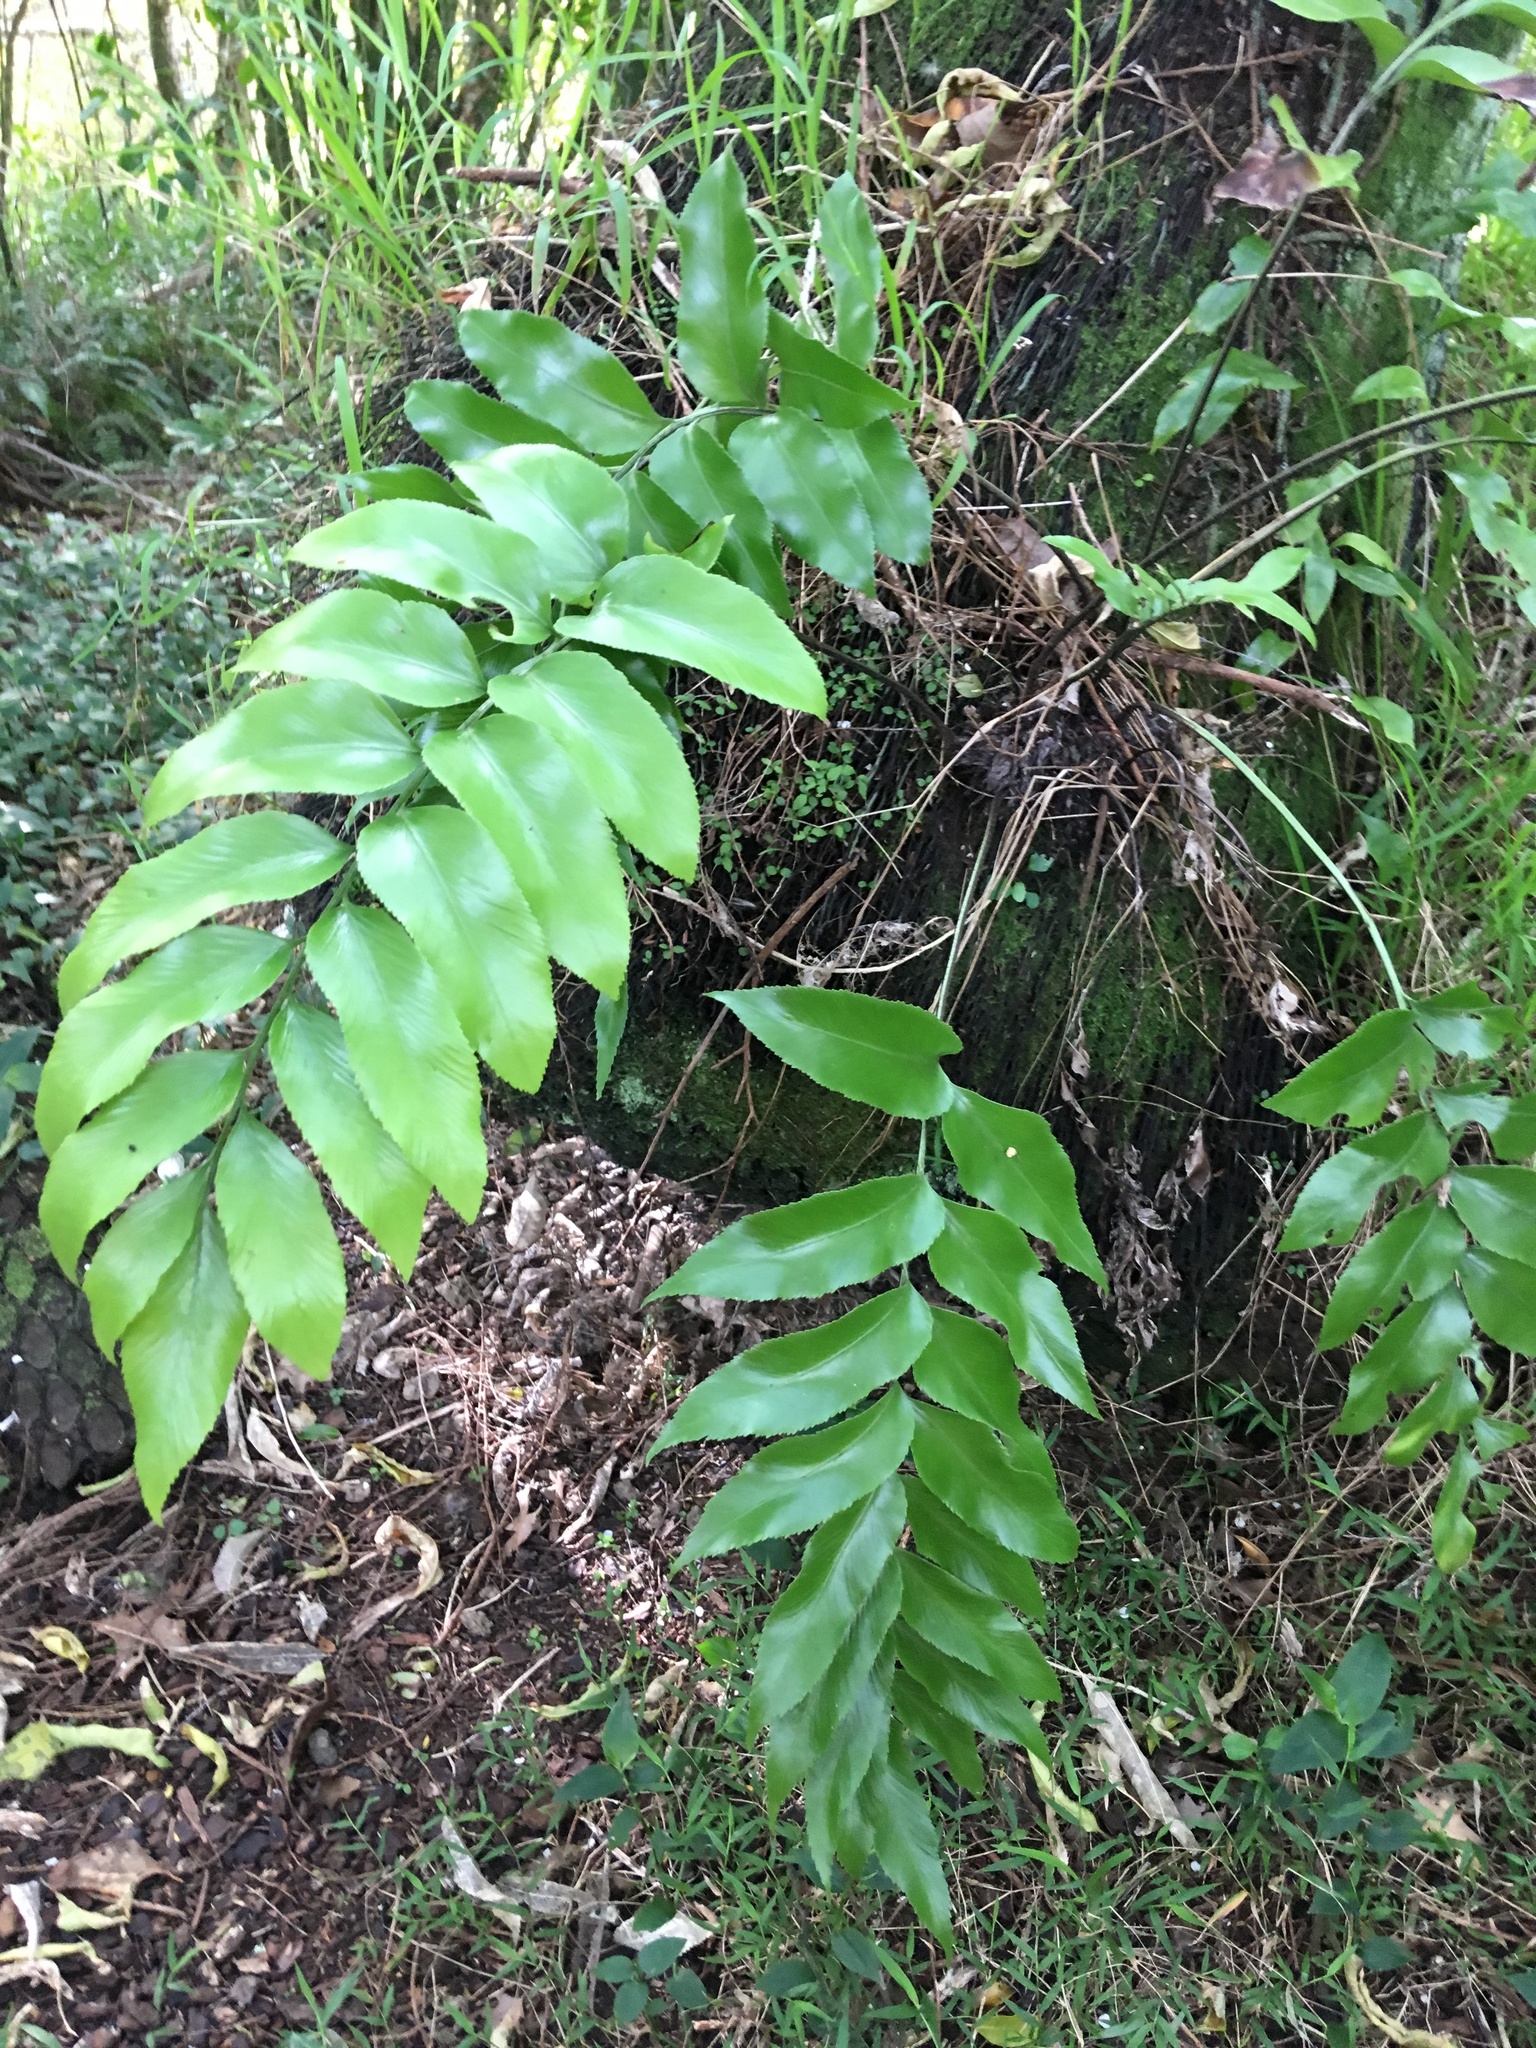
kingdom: Plantae
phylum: Tracheophyta
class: Polypodiopsida
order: Polypodiales
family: Aspleniaceae
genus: Asplenium
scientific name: Asplenium oblongifolium
